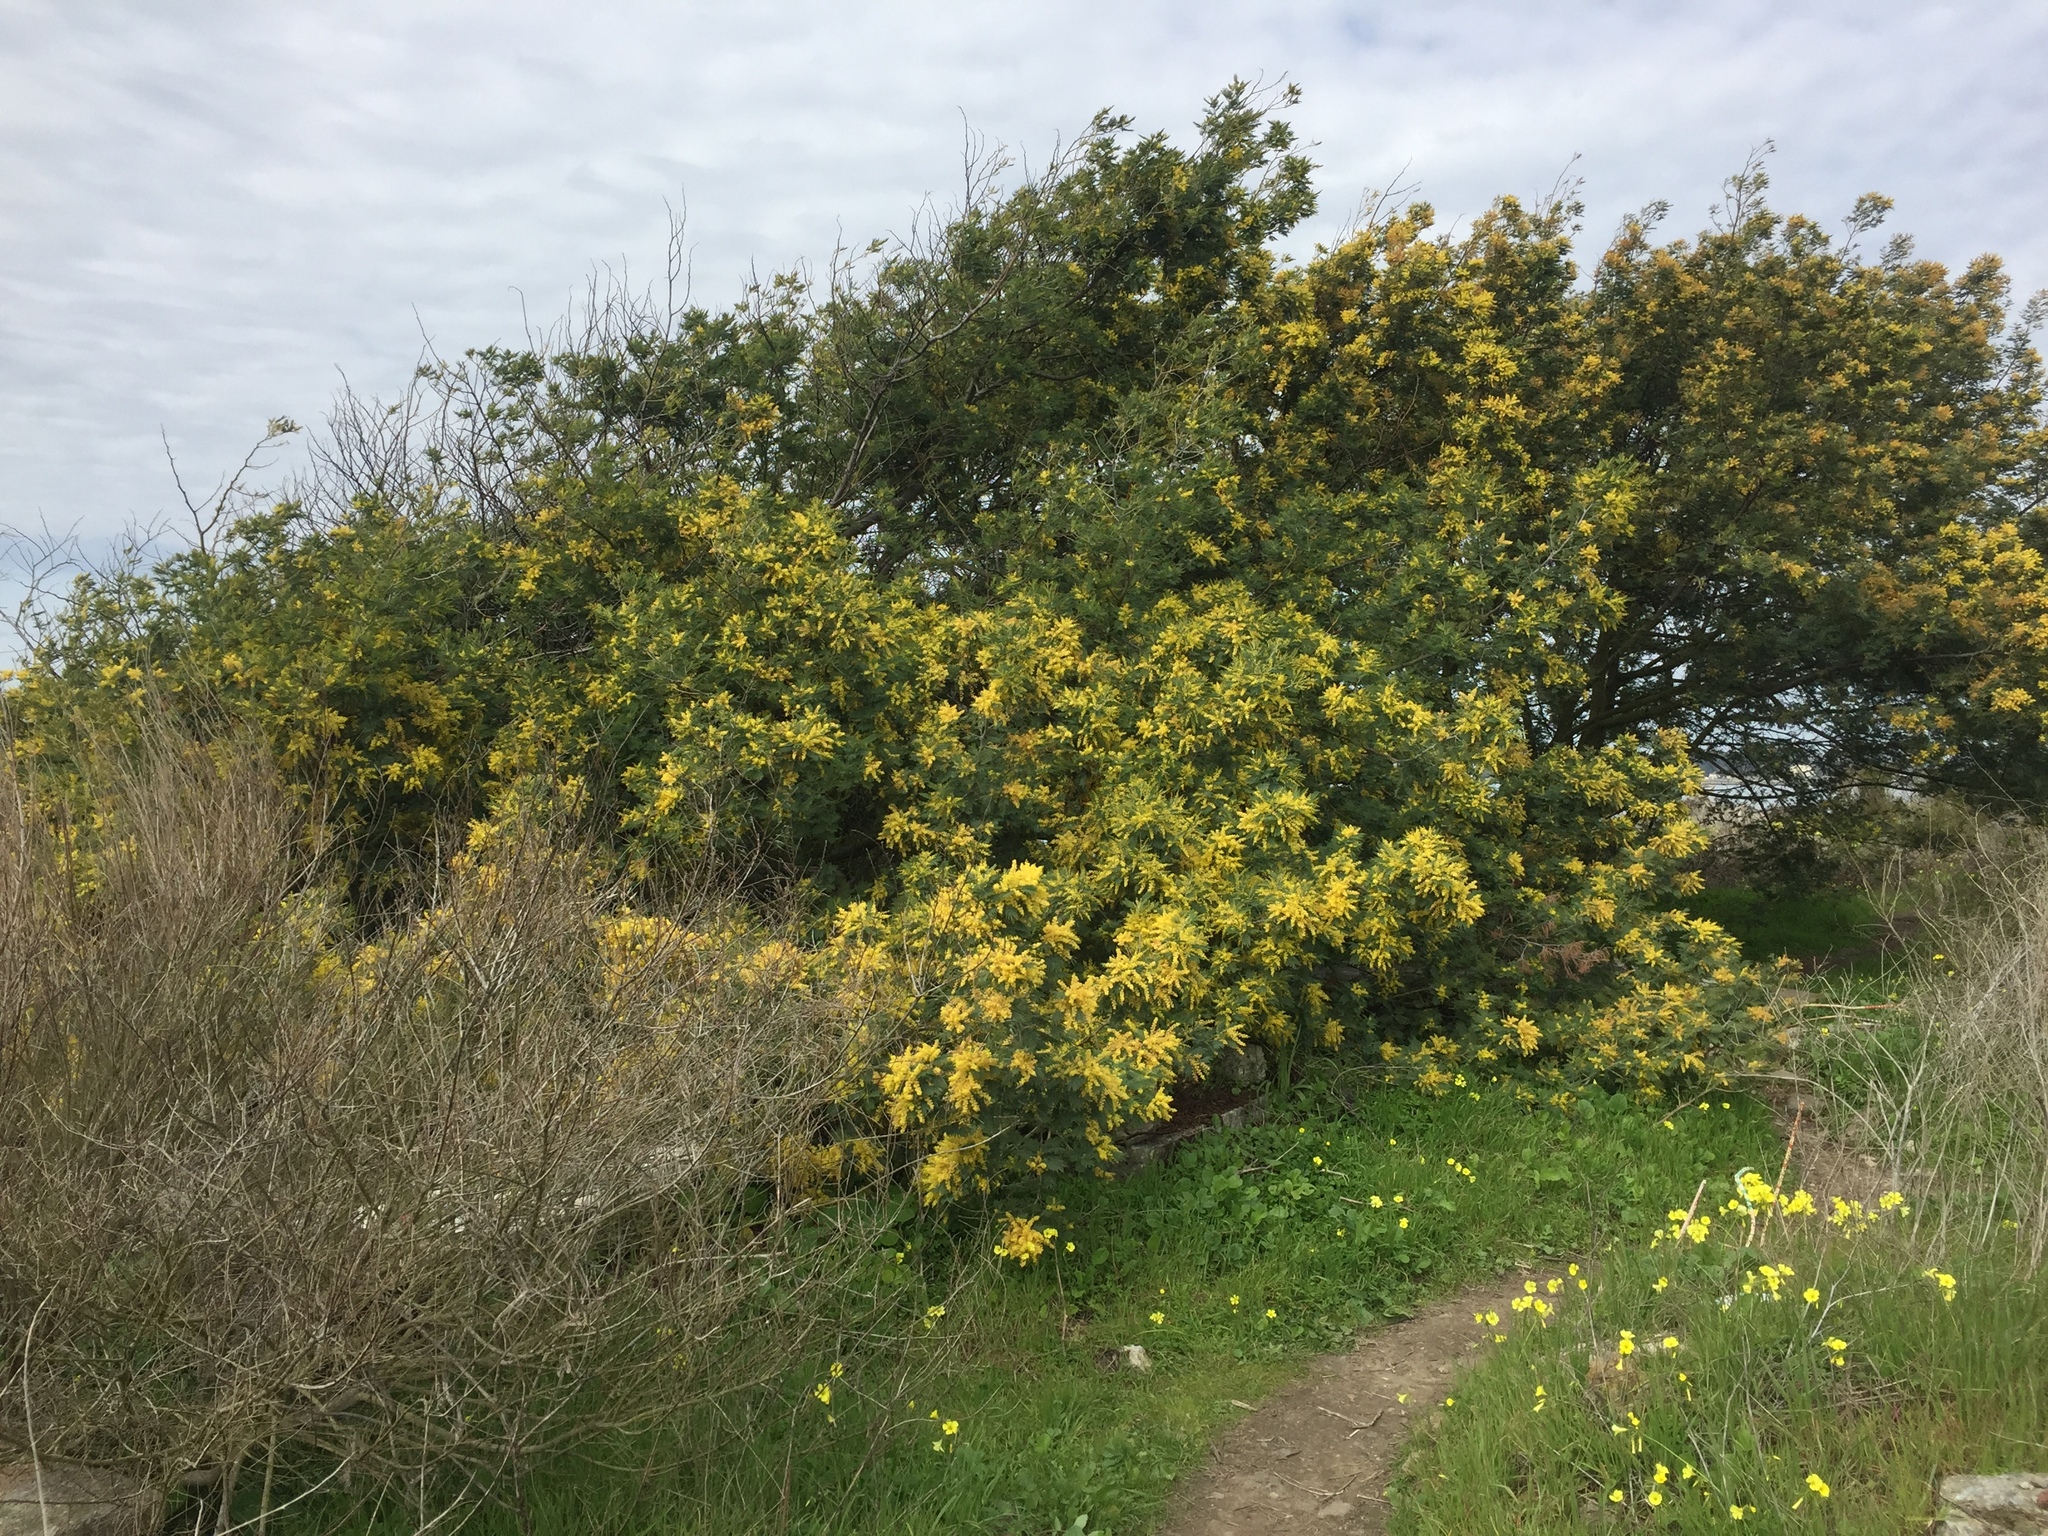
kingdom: Plantae
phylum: Tracheophyta
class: Magnoliopsida
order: Fabales
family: Fabaceae
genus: Acacia
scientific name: Acacia dealbata
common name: Silver wattle
